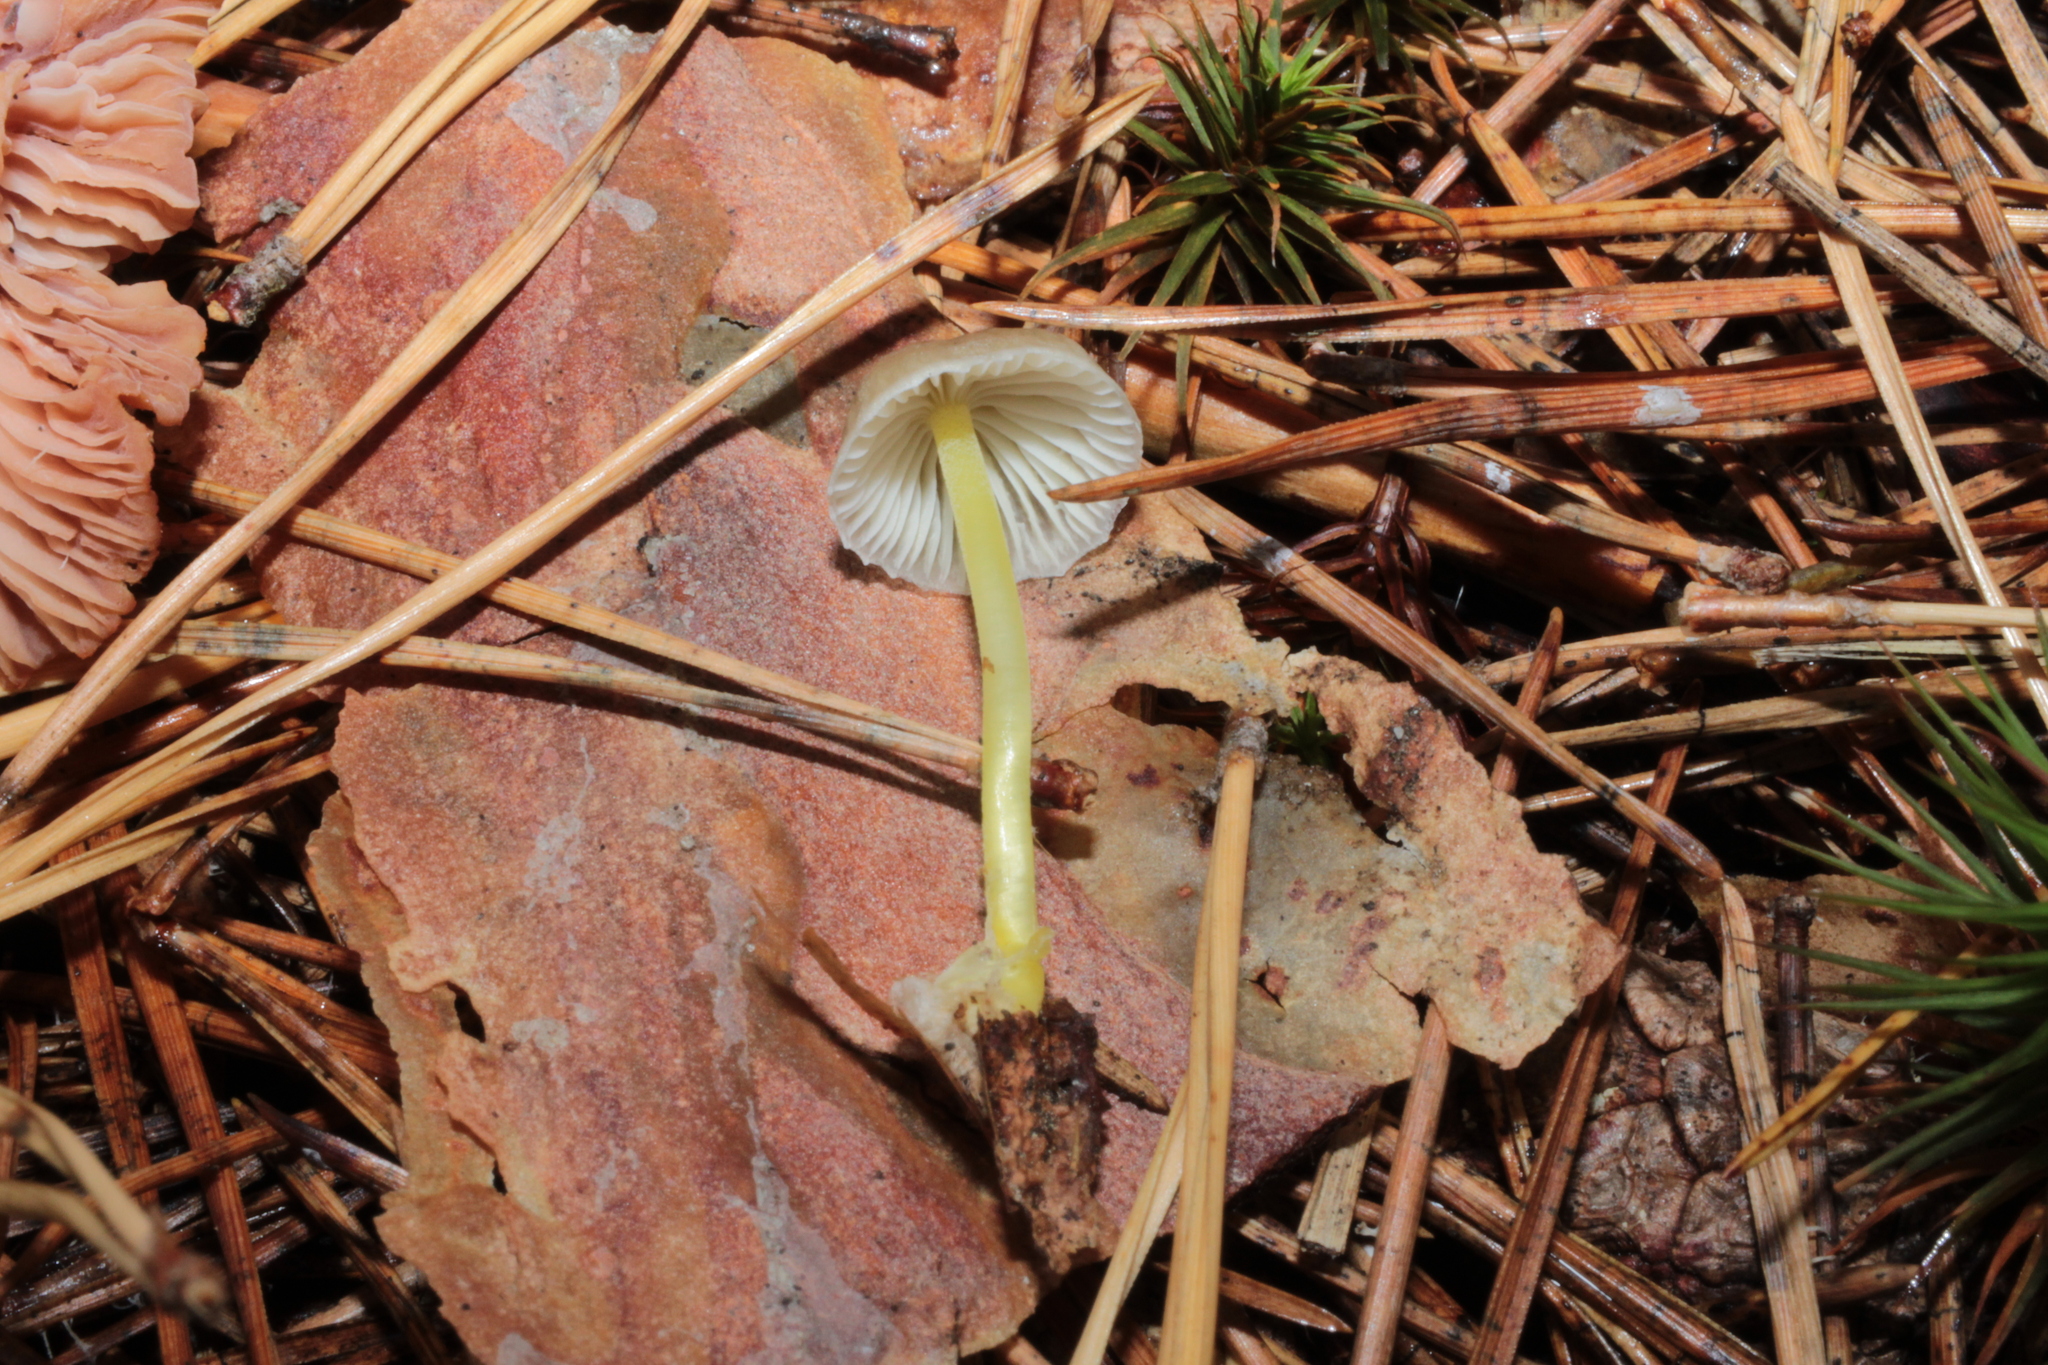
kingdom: Fungi
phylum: Basidiomycota
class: Agaricomycetes
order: Agaricales
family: Mycenaceae
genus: Mycena
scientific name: Mycena epipterygia
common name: Yellowleg bonnet
